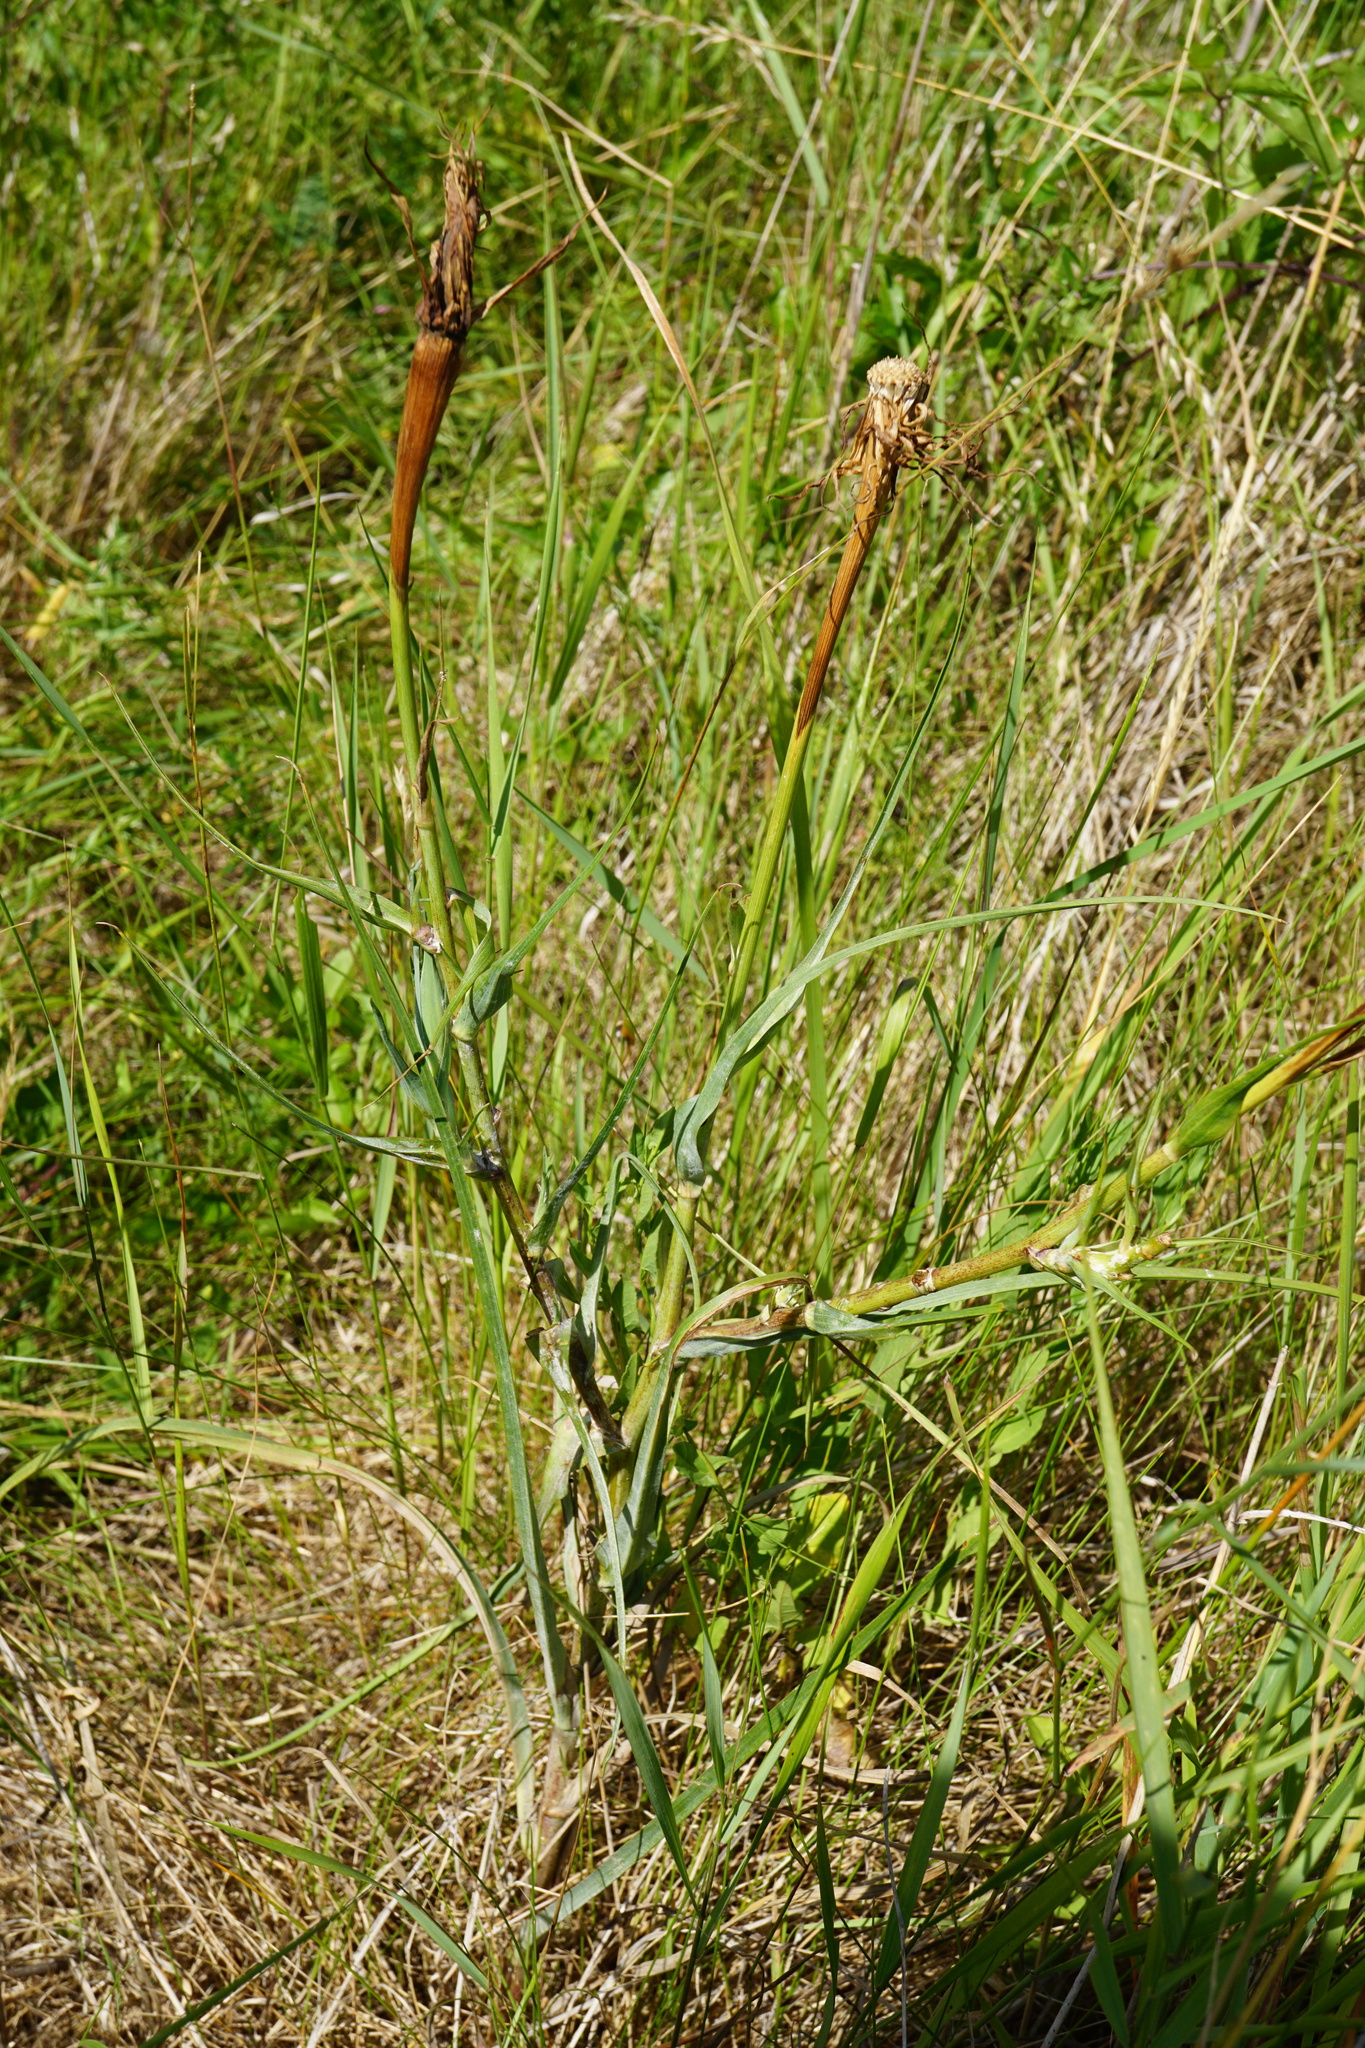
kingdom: Plantae
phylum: Tracheophyta
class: Magnoliopsida
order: Asterales
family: Asteraceae
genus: Tragopogon
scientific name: Tragopogon dubius
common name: Yellow salsify
